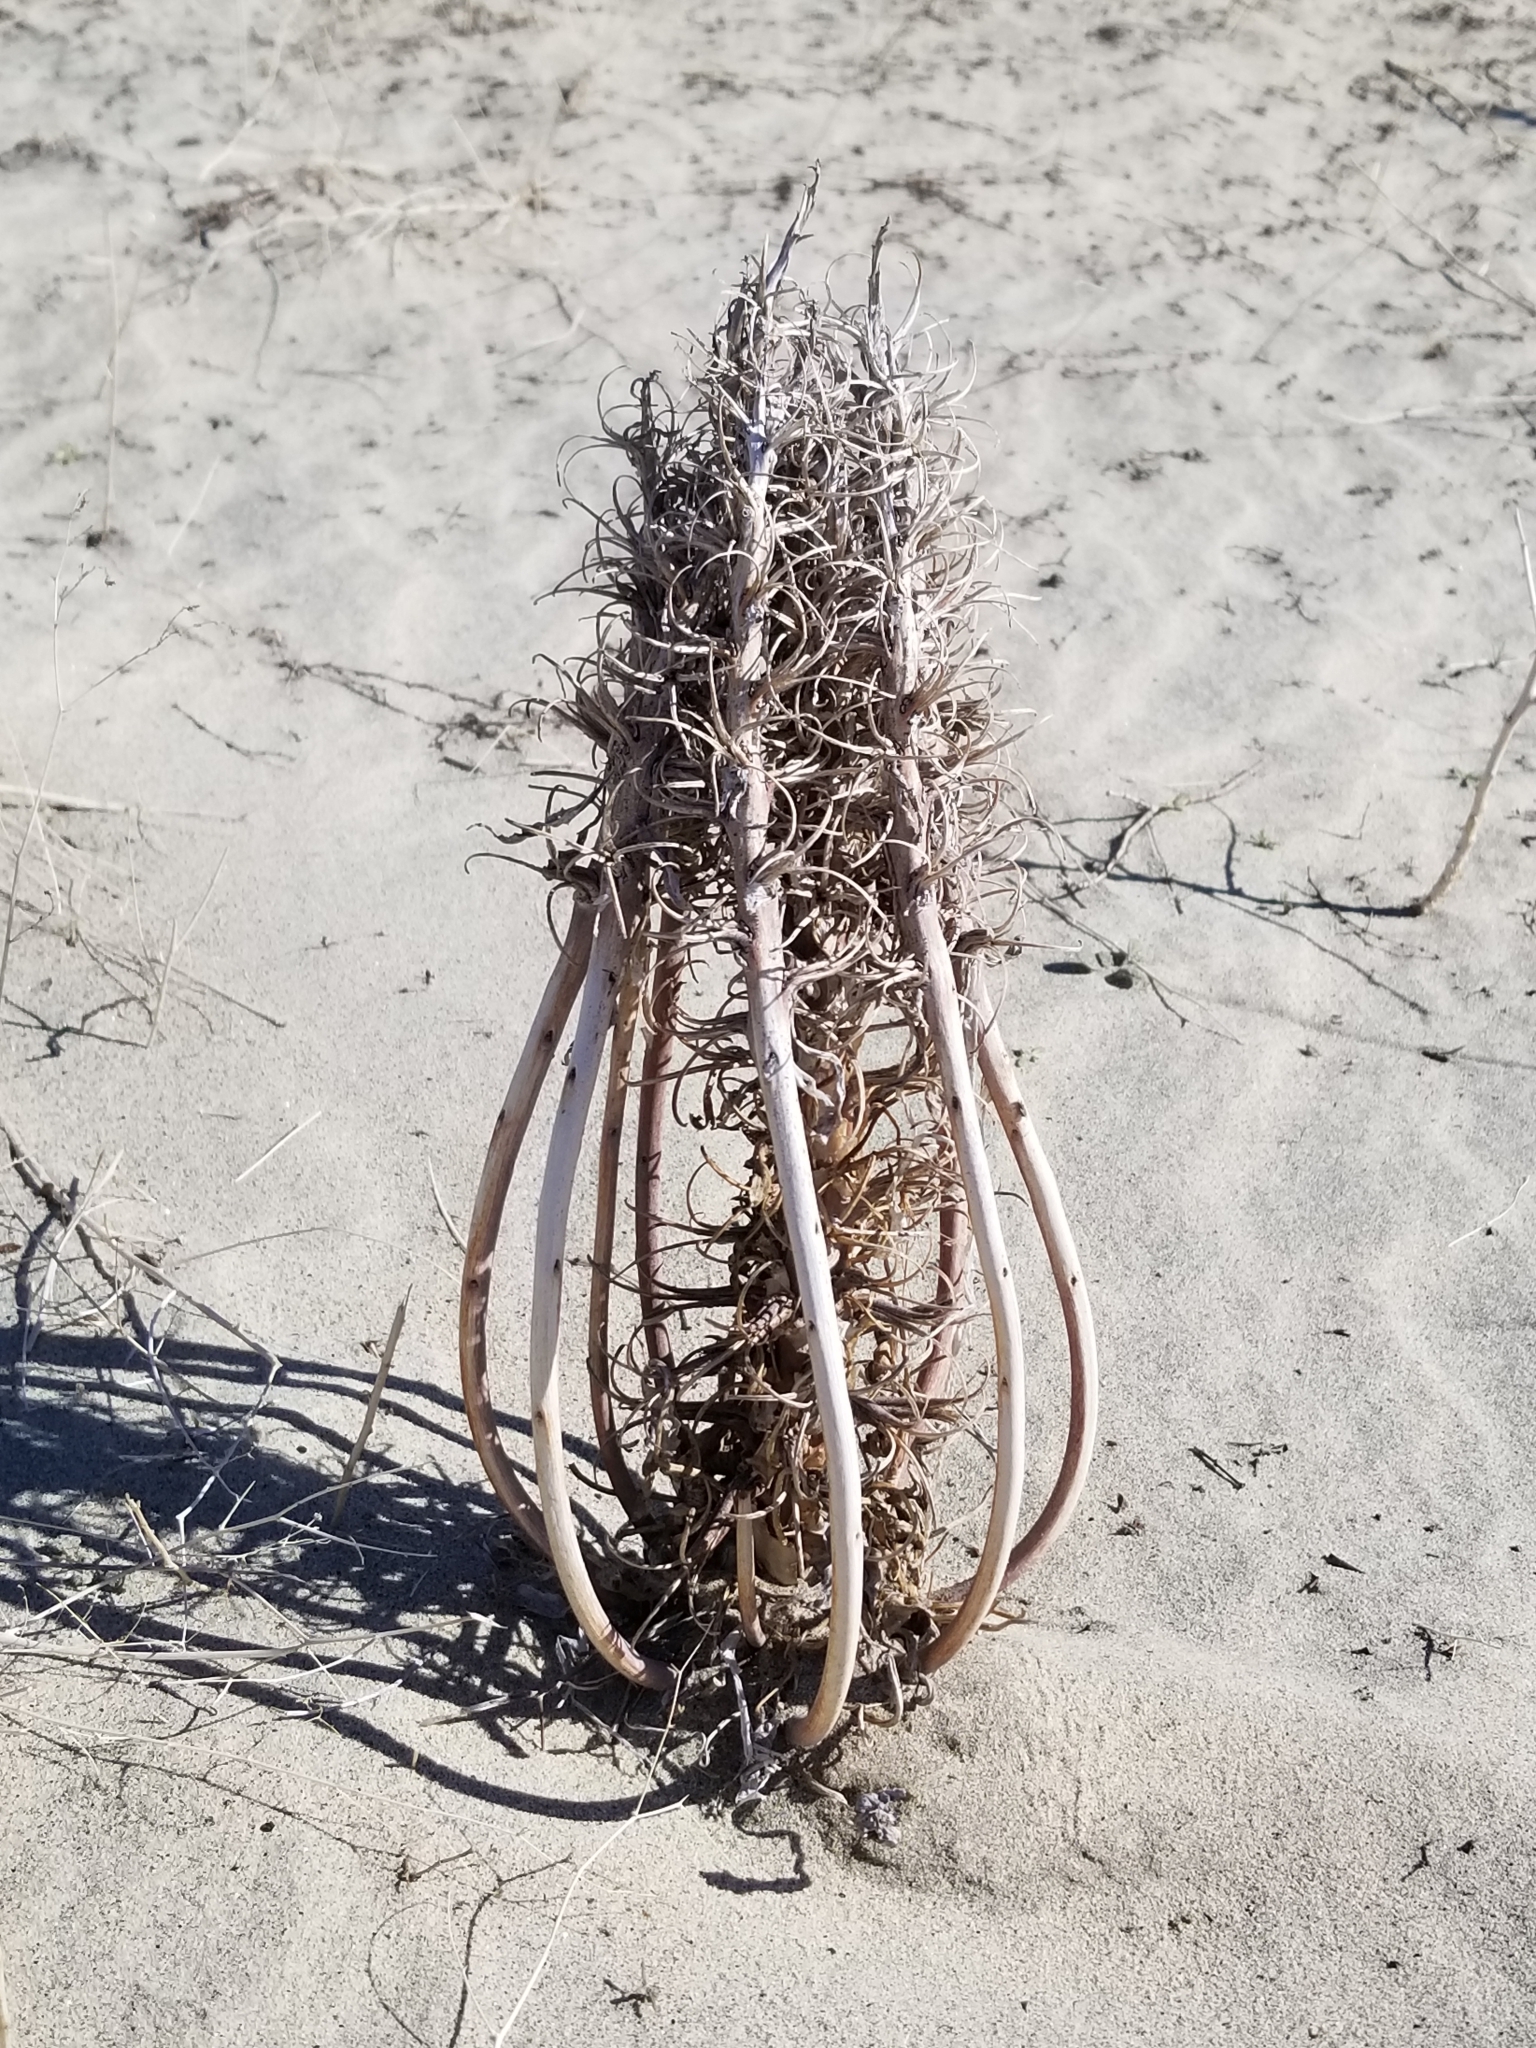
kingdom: Plantae
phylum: Tracheophyta
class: Magnoliopsida
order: Myrtales
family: Onagraceae
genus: Oenothera
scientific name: Oenothera deltoides
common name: Basket evening-primrose
